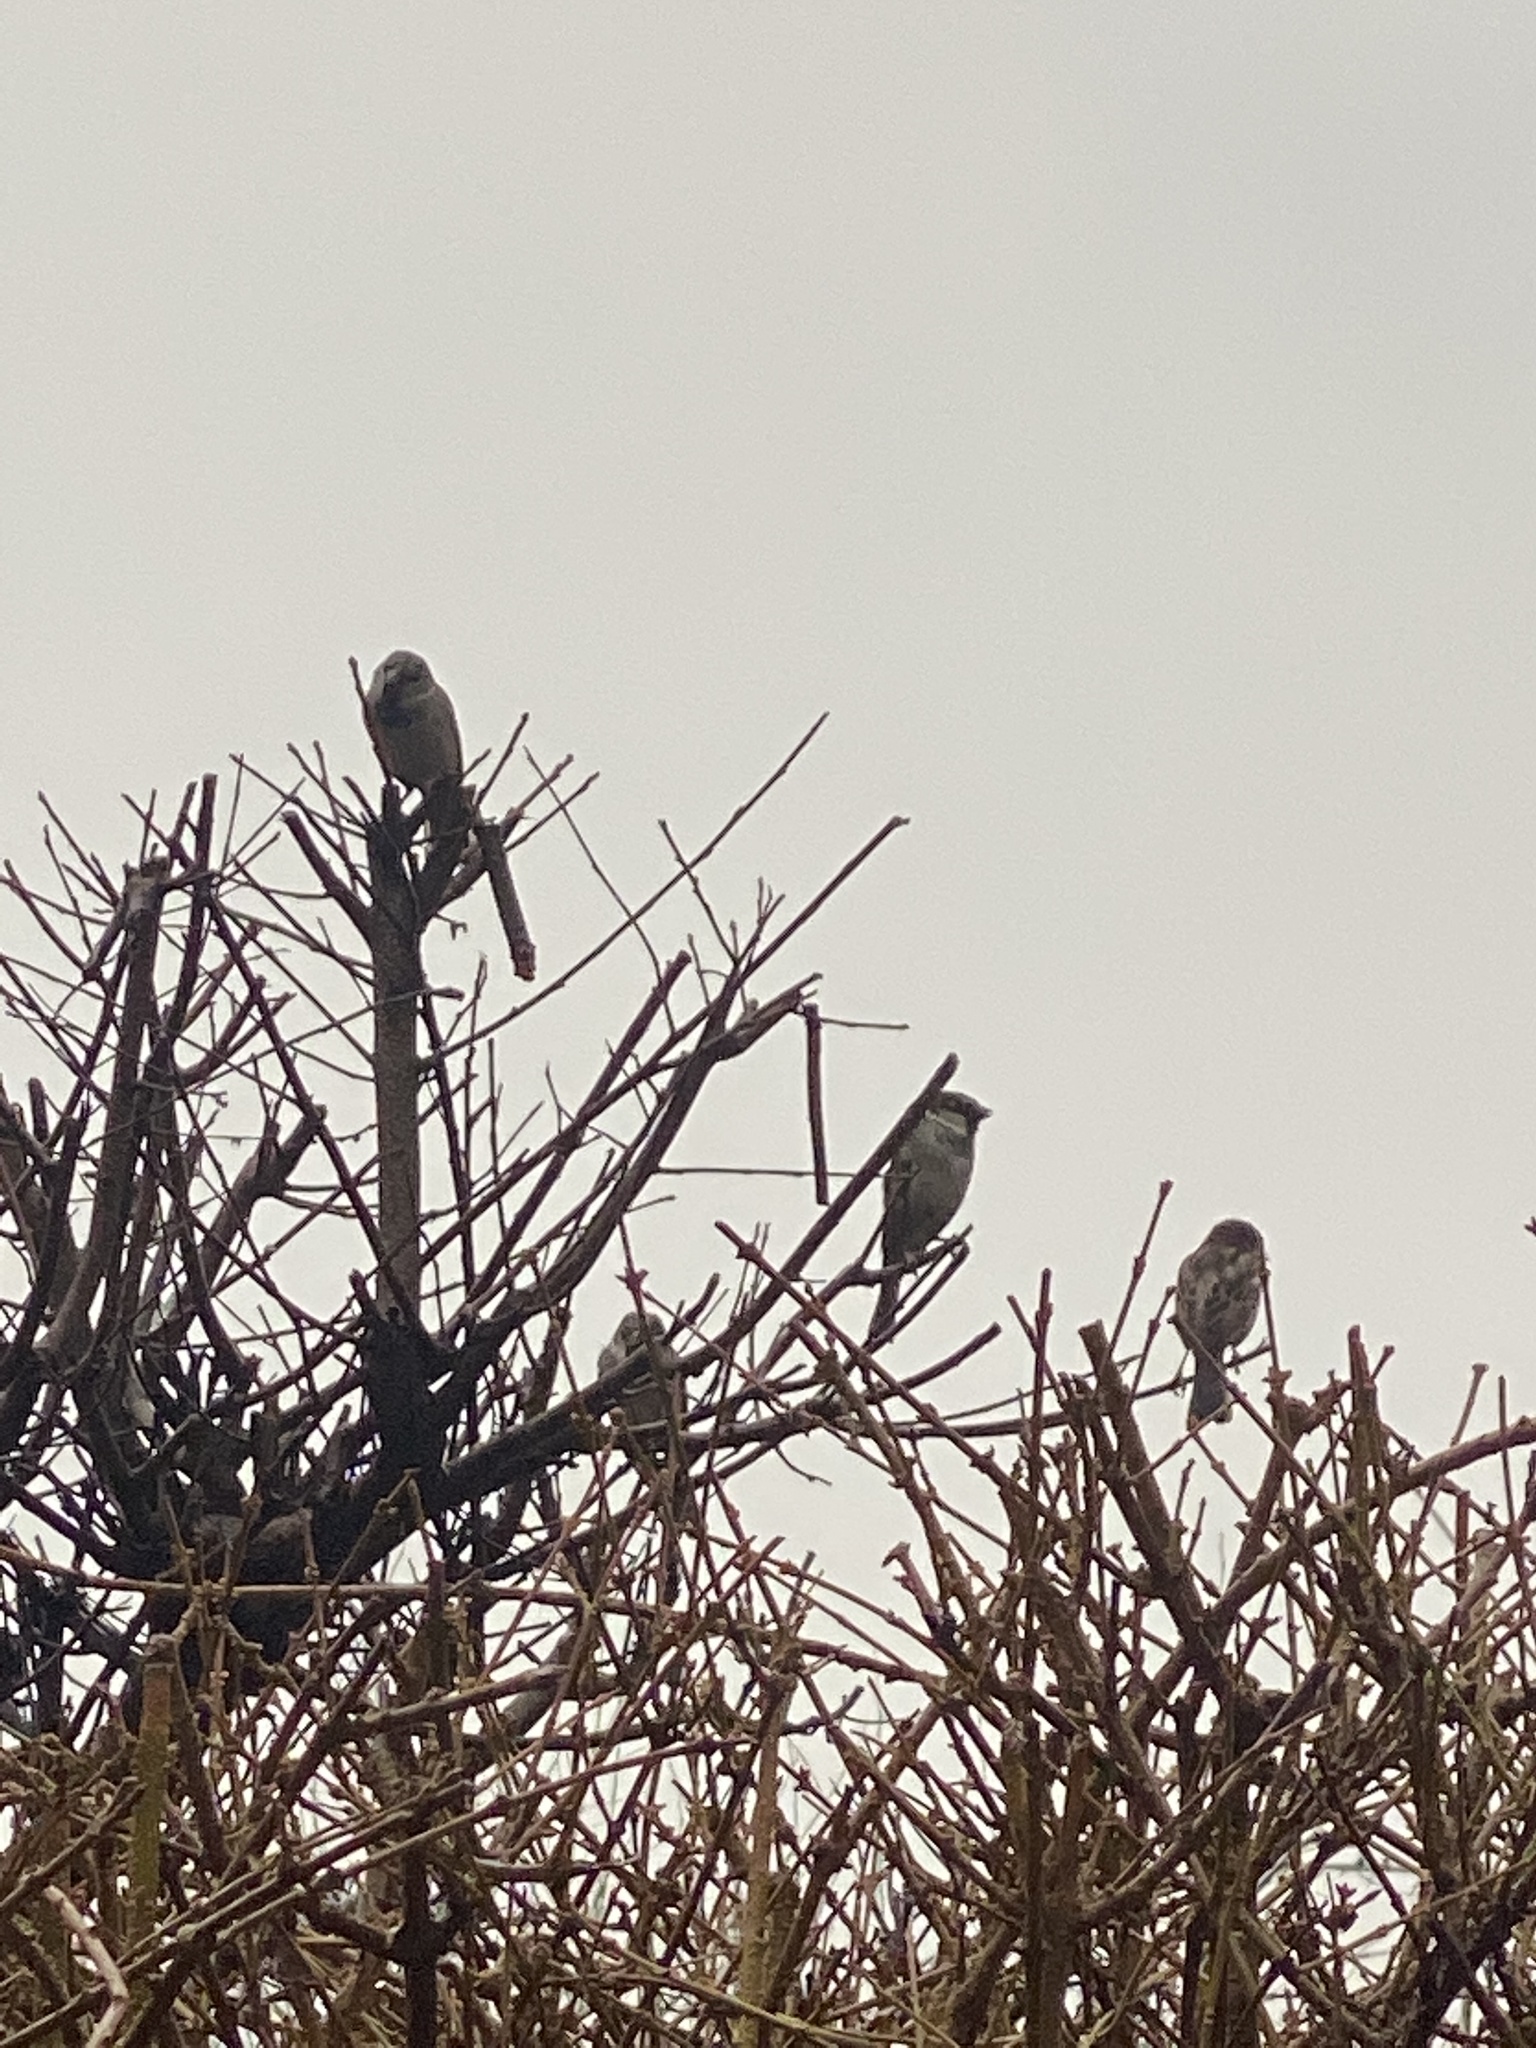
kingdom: Animalia
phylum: Chordata
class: Aves
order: Passeriformes
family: Passeridae
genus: Passer
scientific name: Passer domesticus
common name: House sparrow
